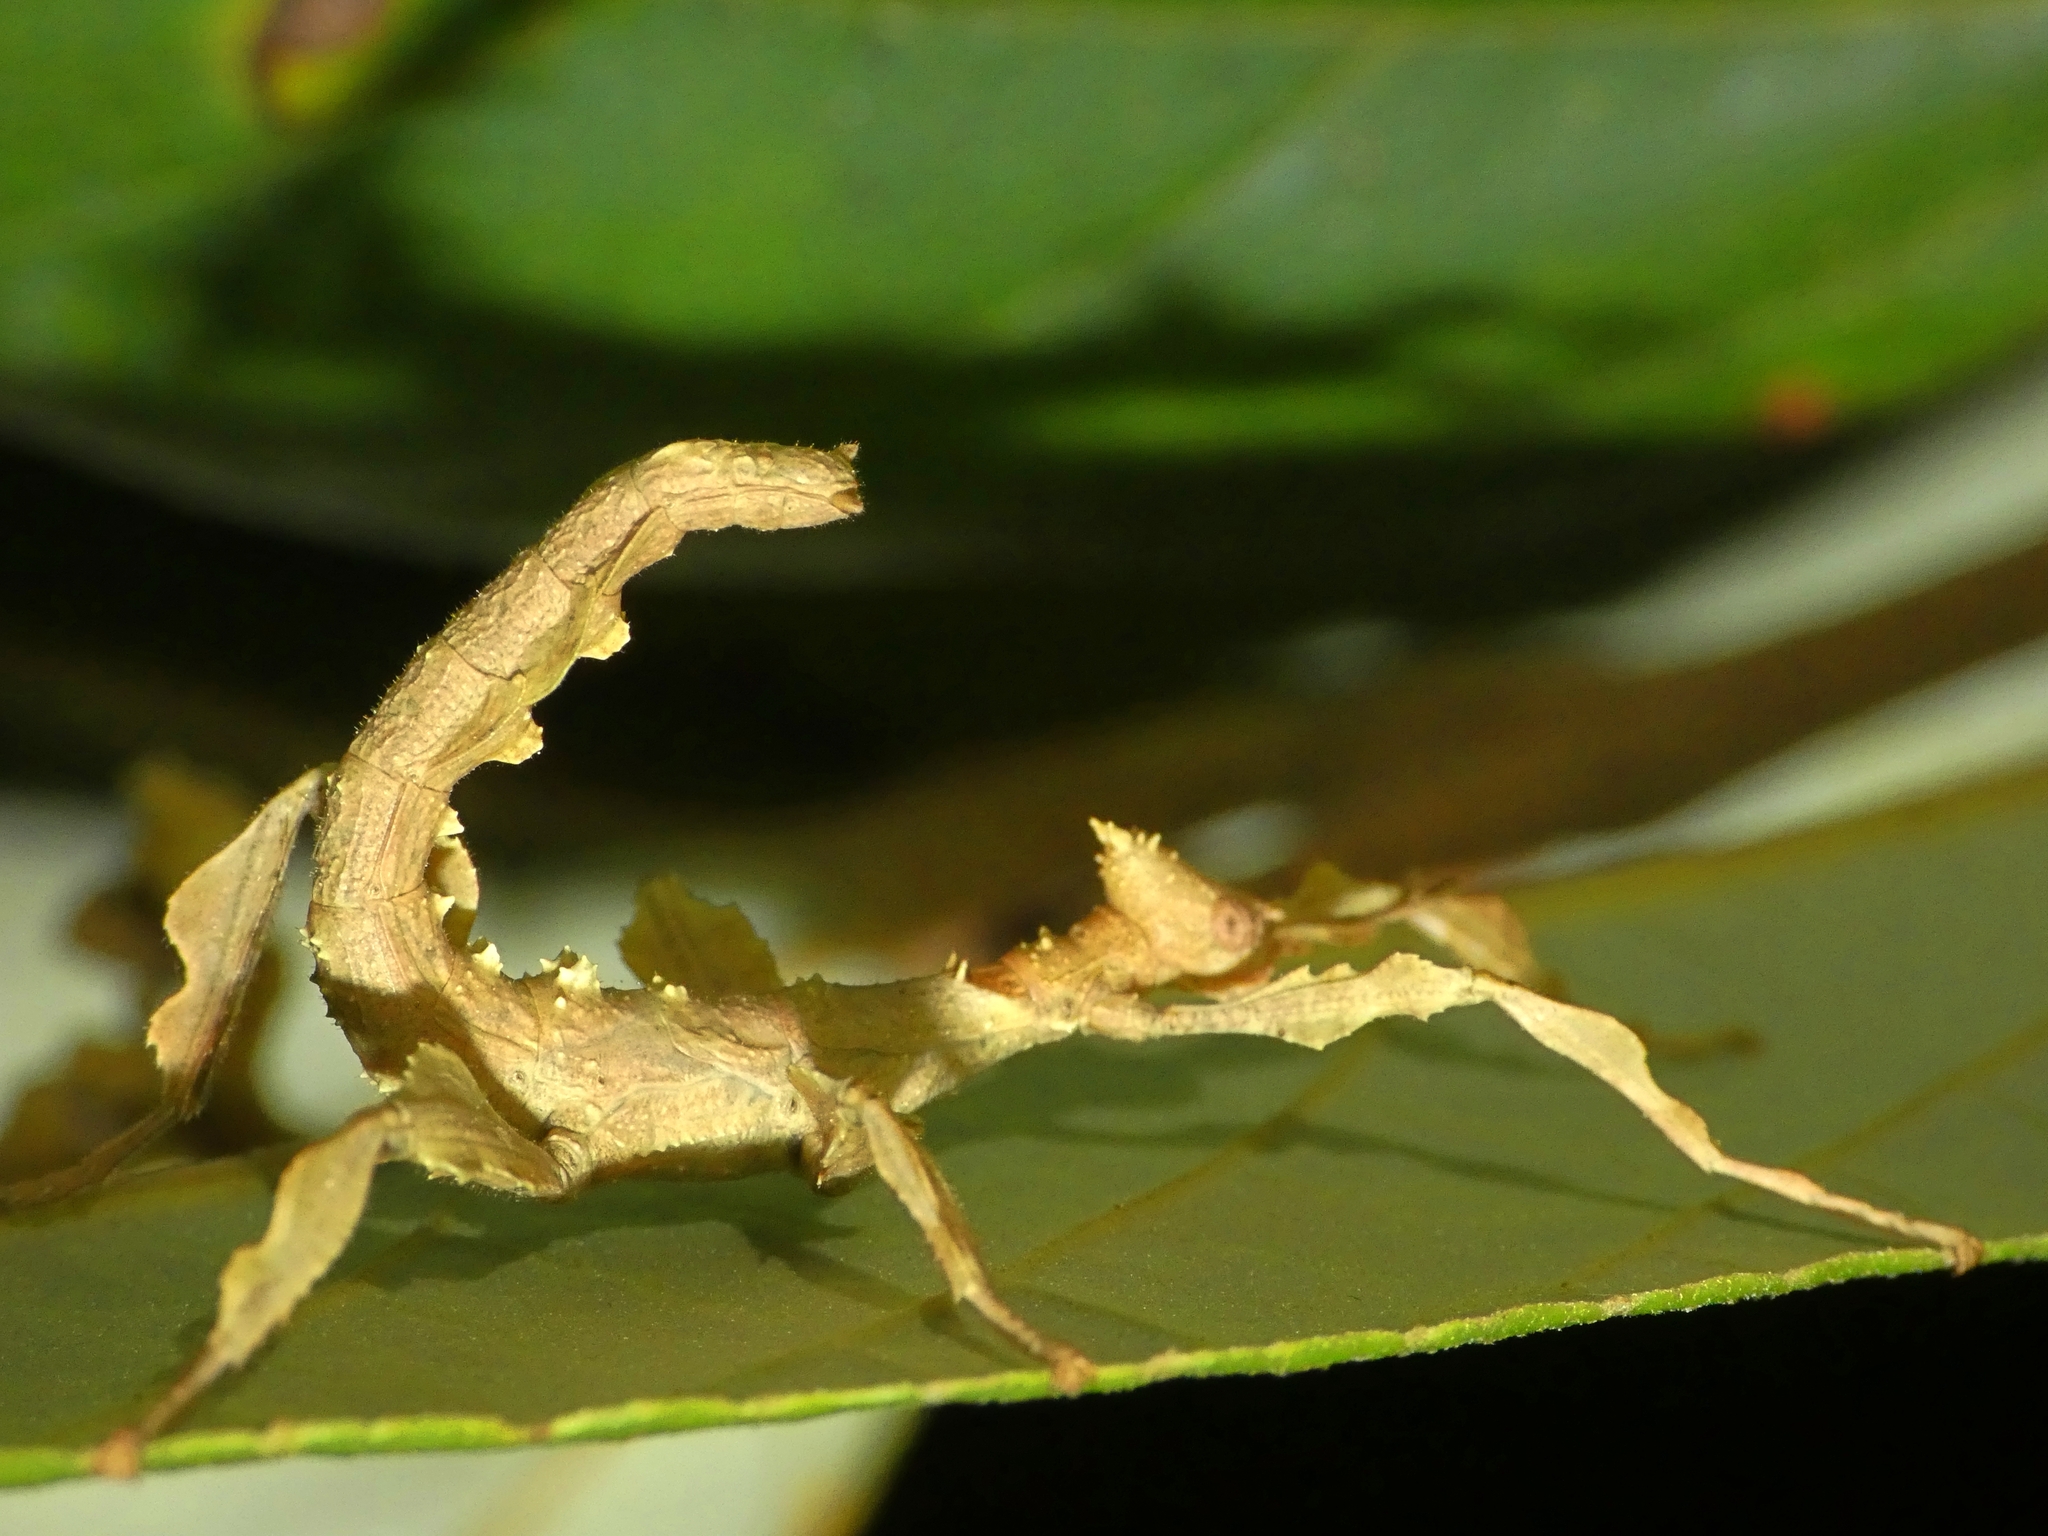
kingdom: Animalia
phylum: Arthropoda
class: Insecta
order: Phasmida
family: Phasmatidae
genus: Extatosoma
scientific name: Extatosoma tiaratum
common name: Macleay's spectre
